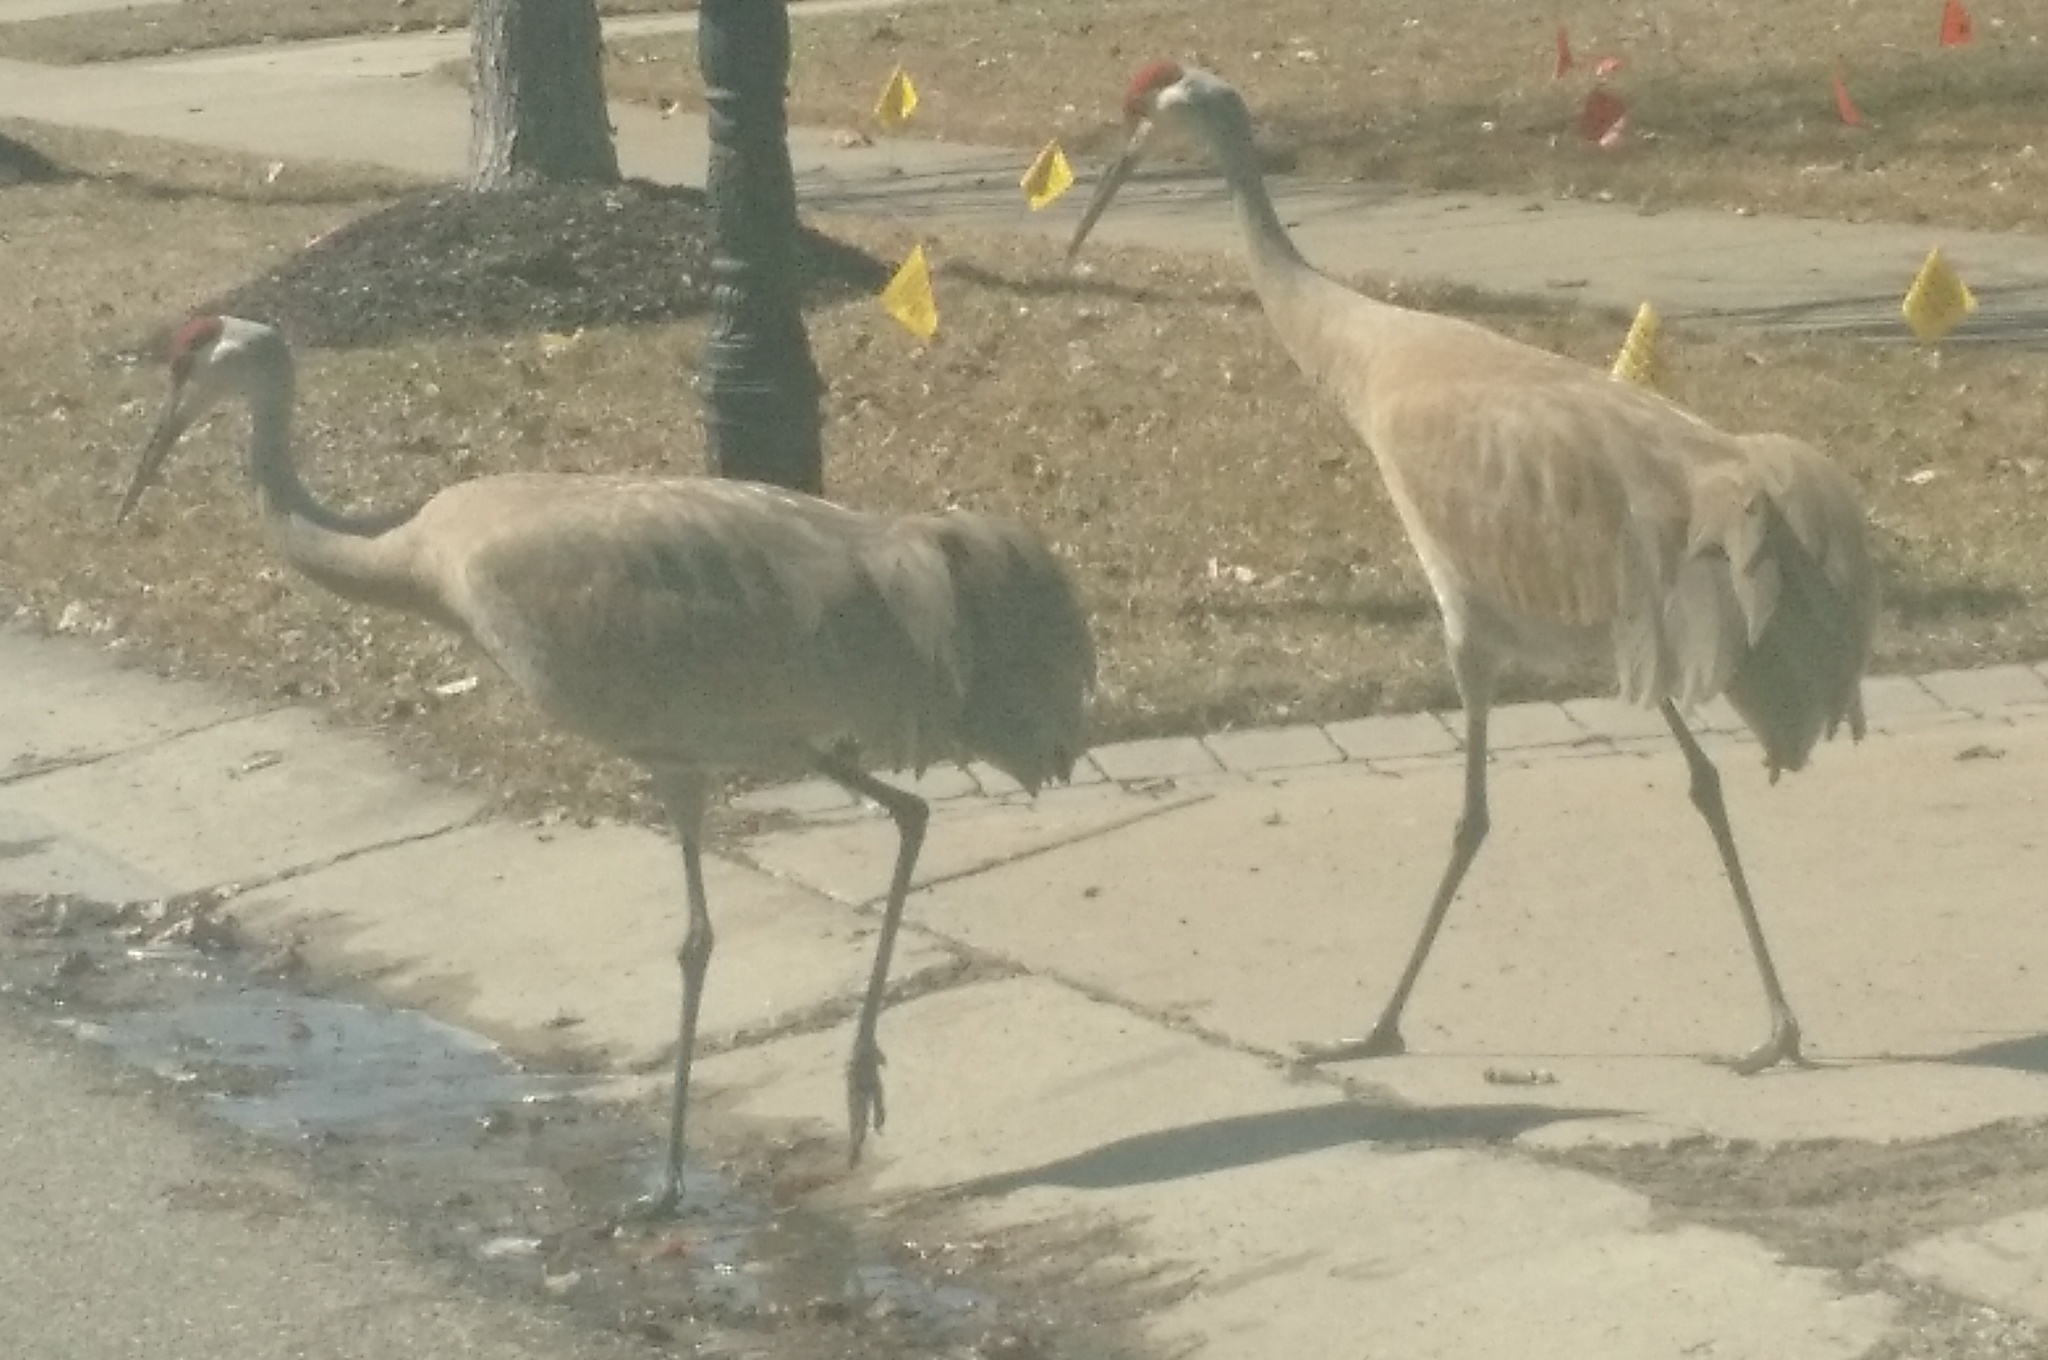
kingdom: Animalia
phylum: Chordata
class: Aves
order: Gruiformes
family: Gruidae
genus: Grus
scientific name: Grus canadensis
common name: Sandhill crane
